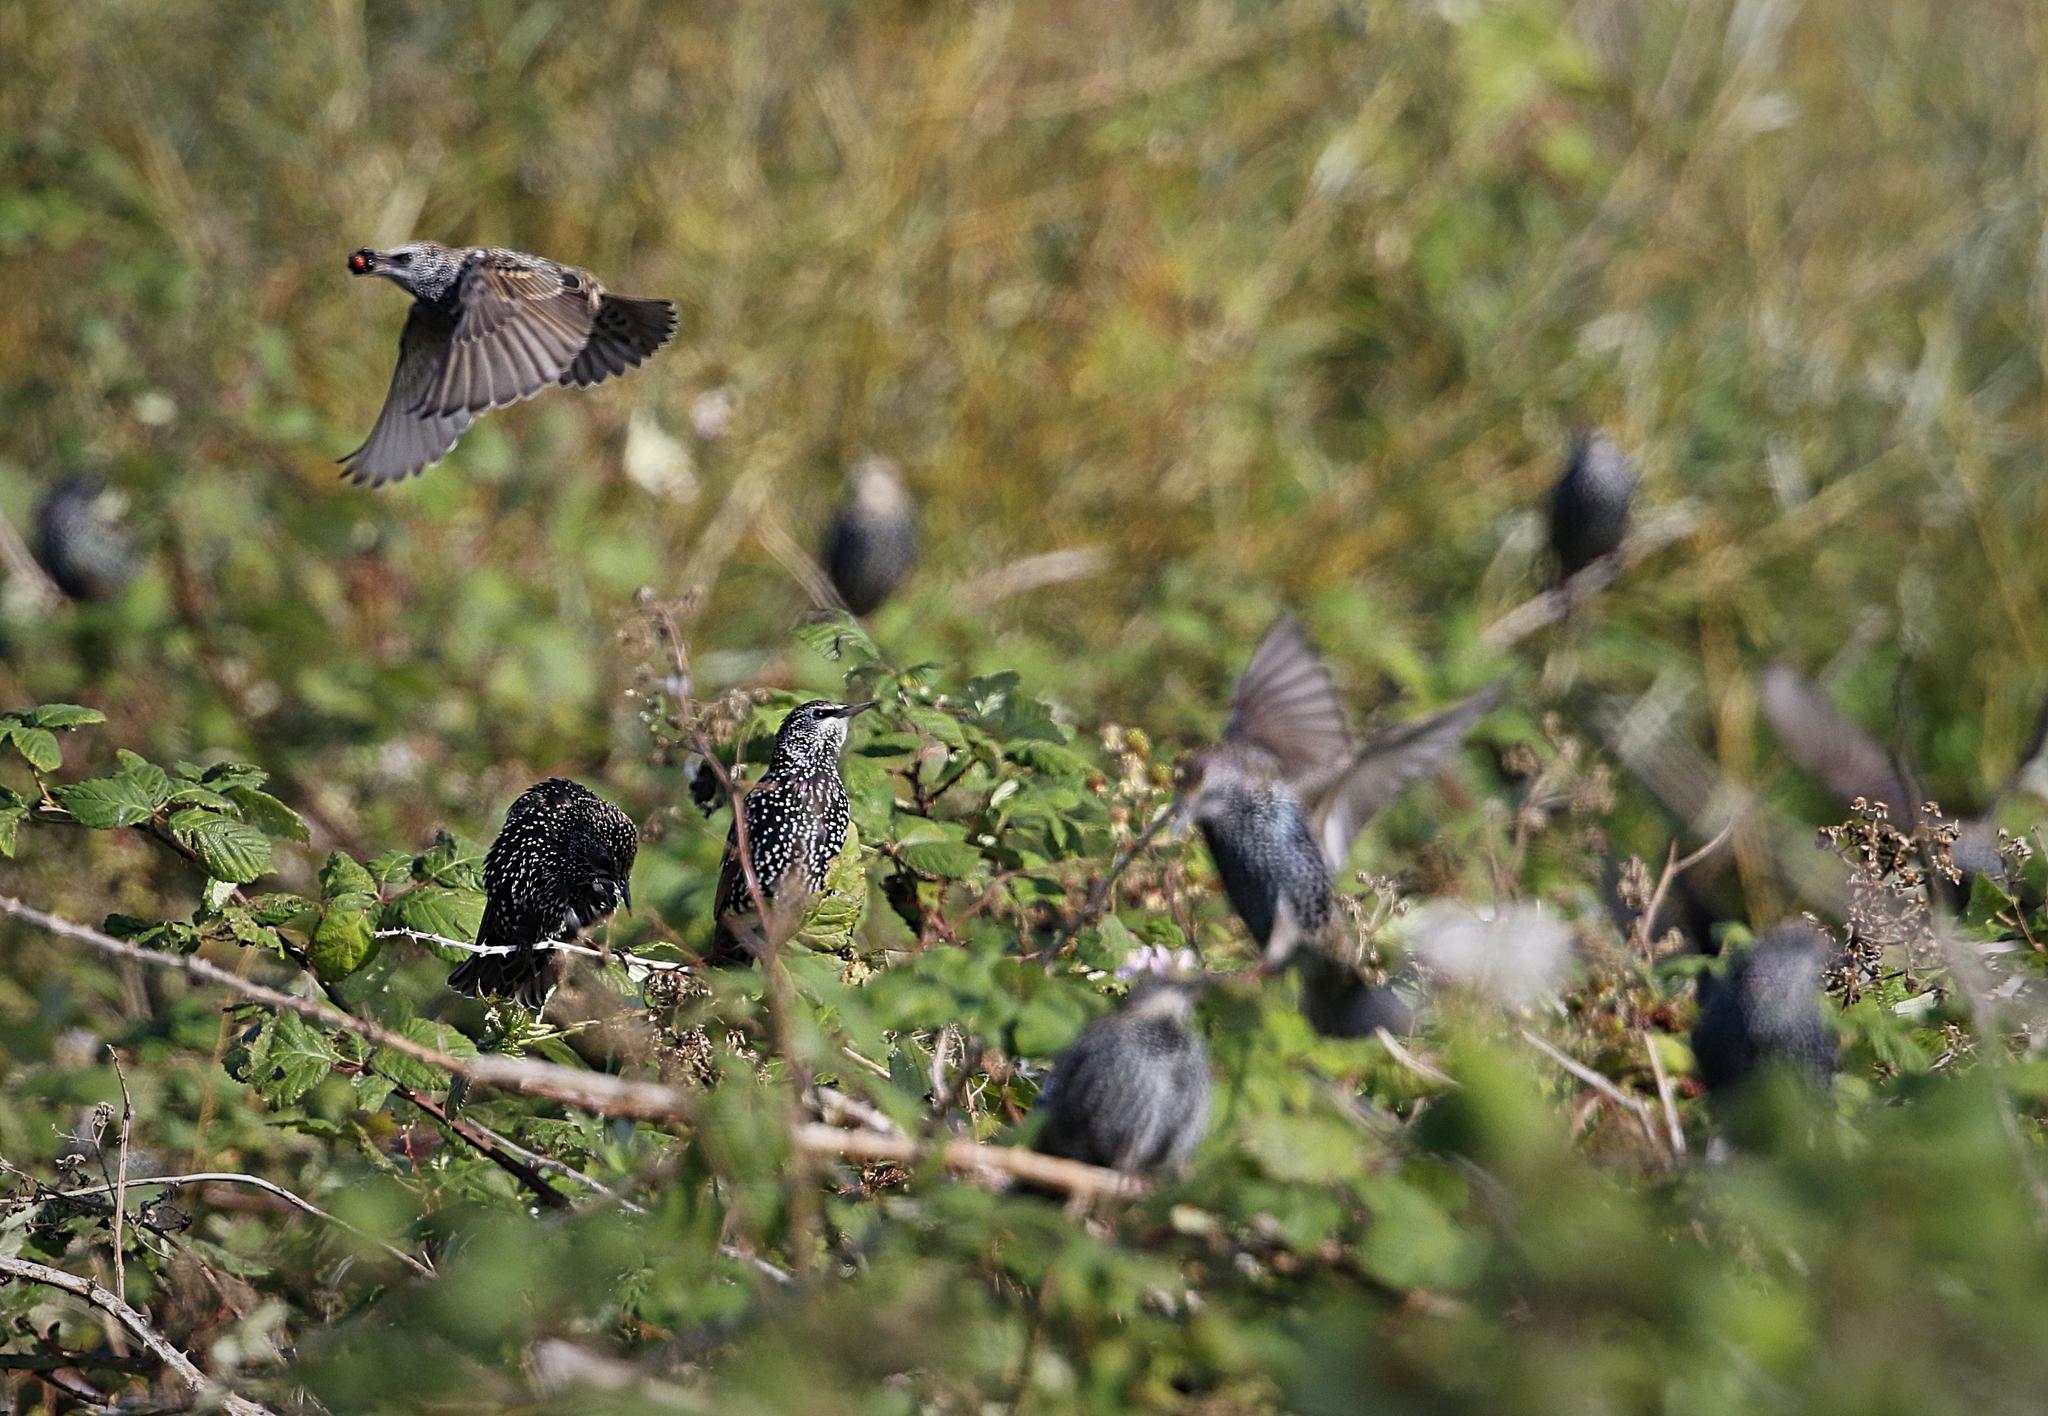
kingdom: Animalia
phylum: Chordata
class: Aves
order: Passeriformes
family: Sturnidae
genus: Sturnus
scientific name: Sturnus vulgaris
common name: Common starling
